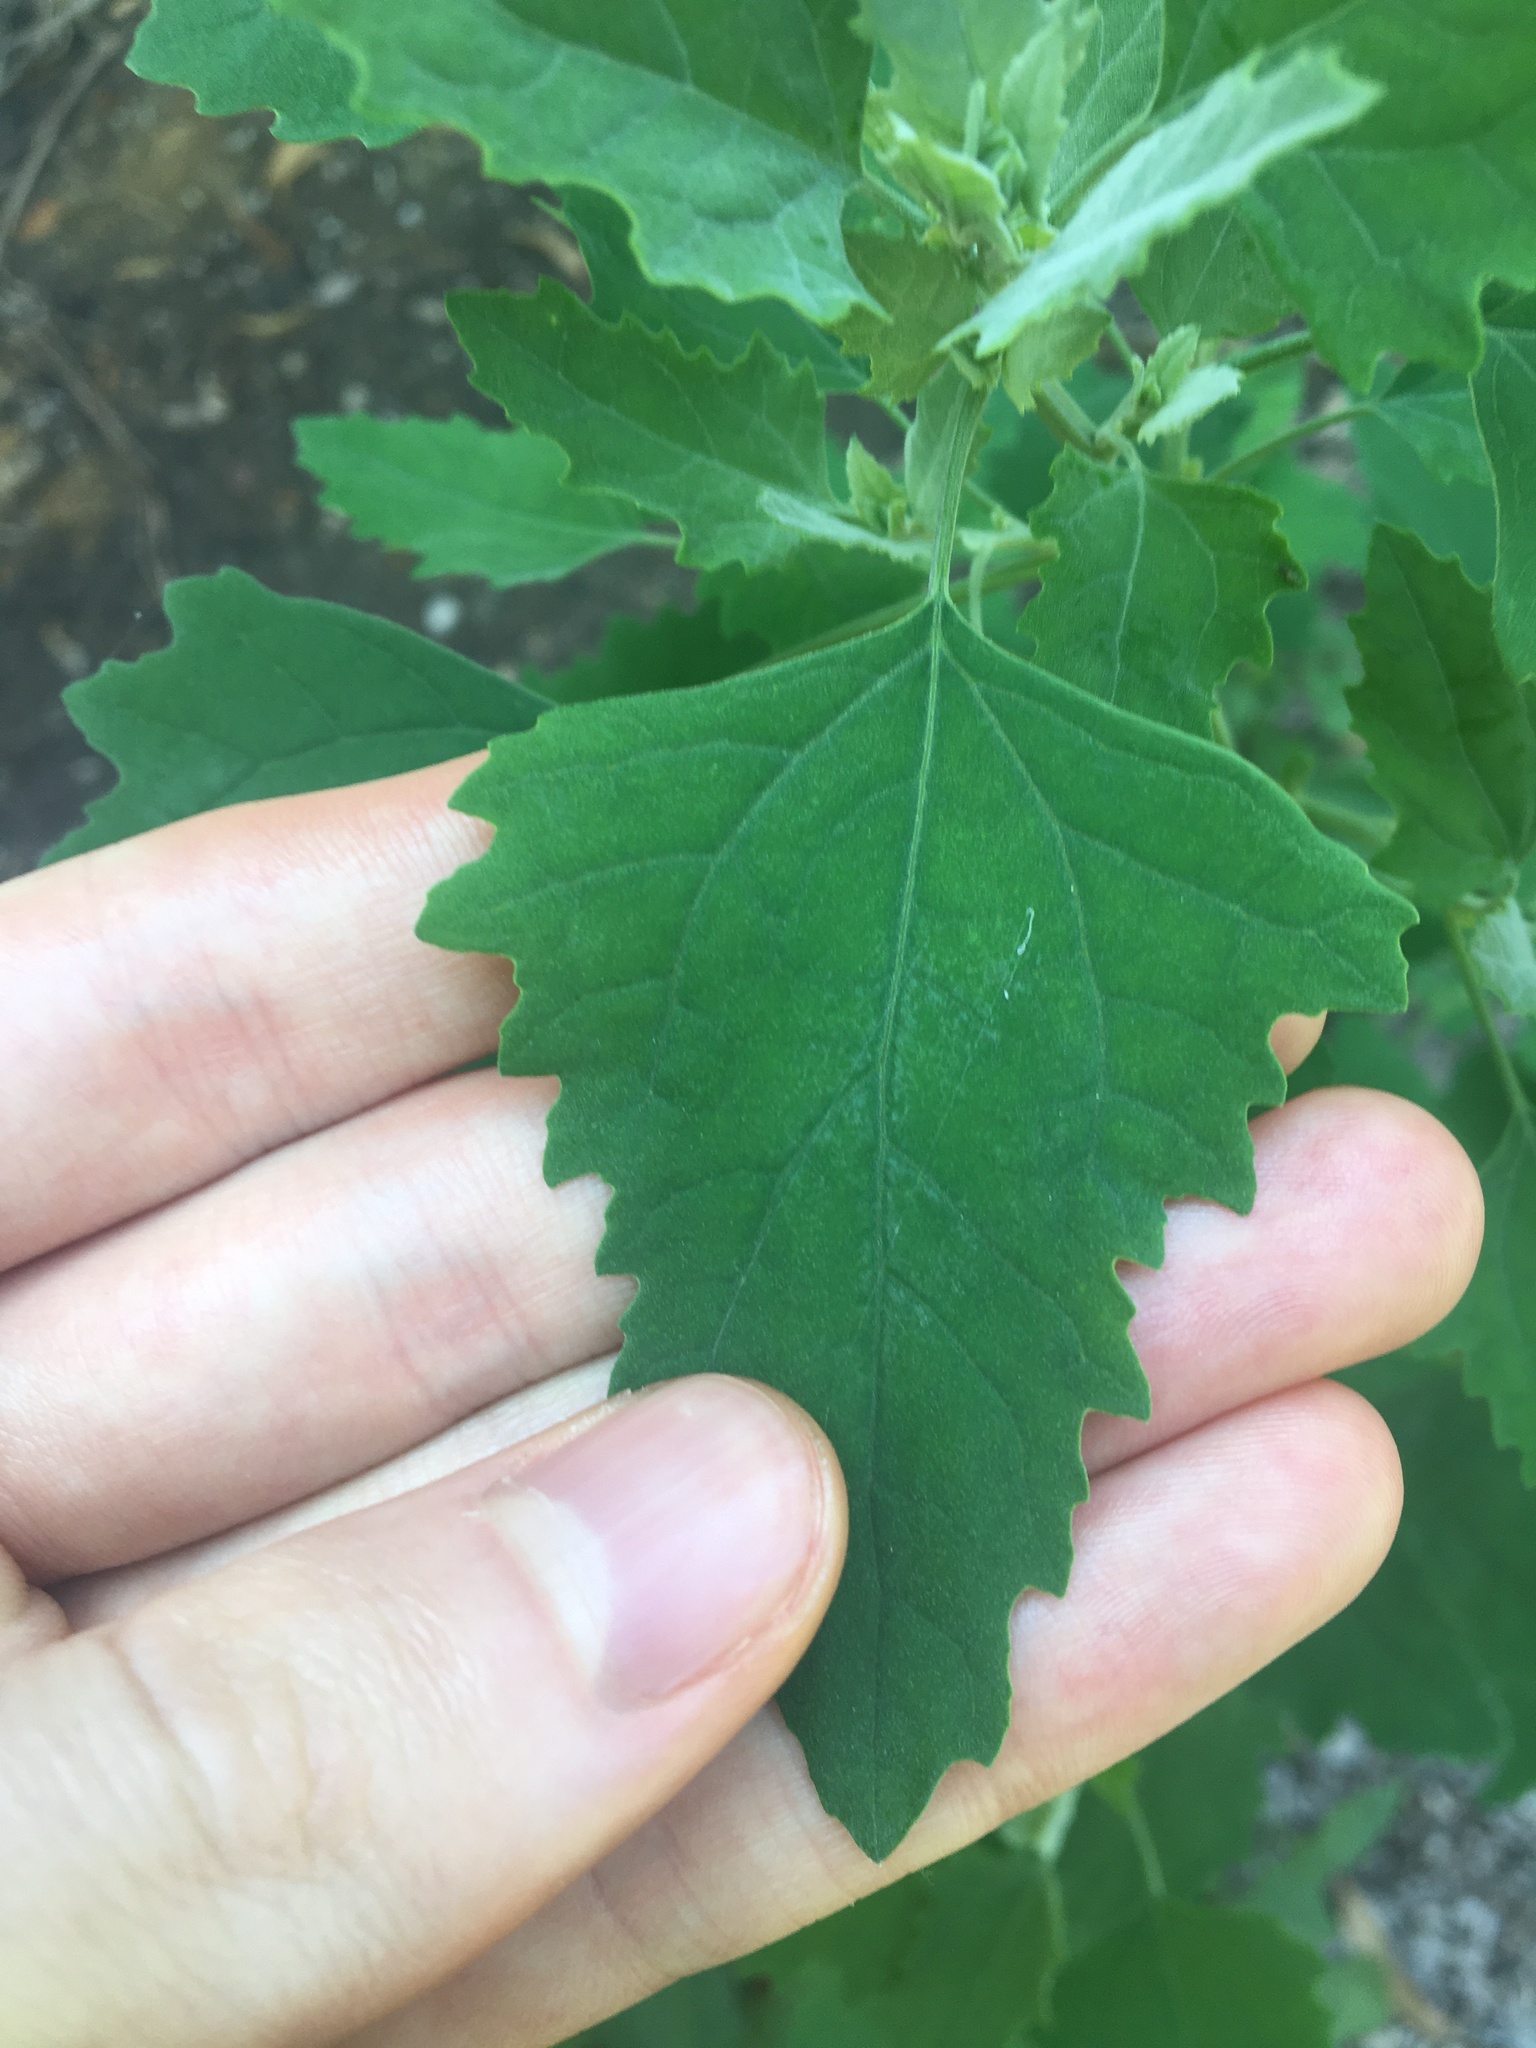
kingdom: Plantae
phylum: Tracheophyta
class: Magnoliopsida
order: Caryophyllales
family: Amaranthaceae
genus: Chenopodium
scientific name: Chenopodium album
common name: Fat-hen
